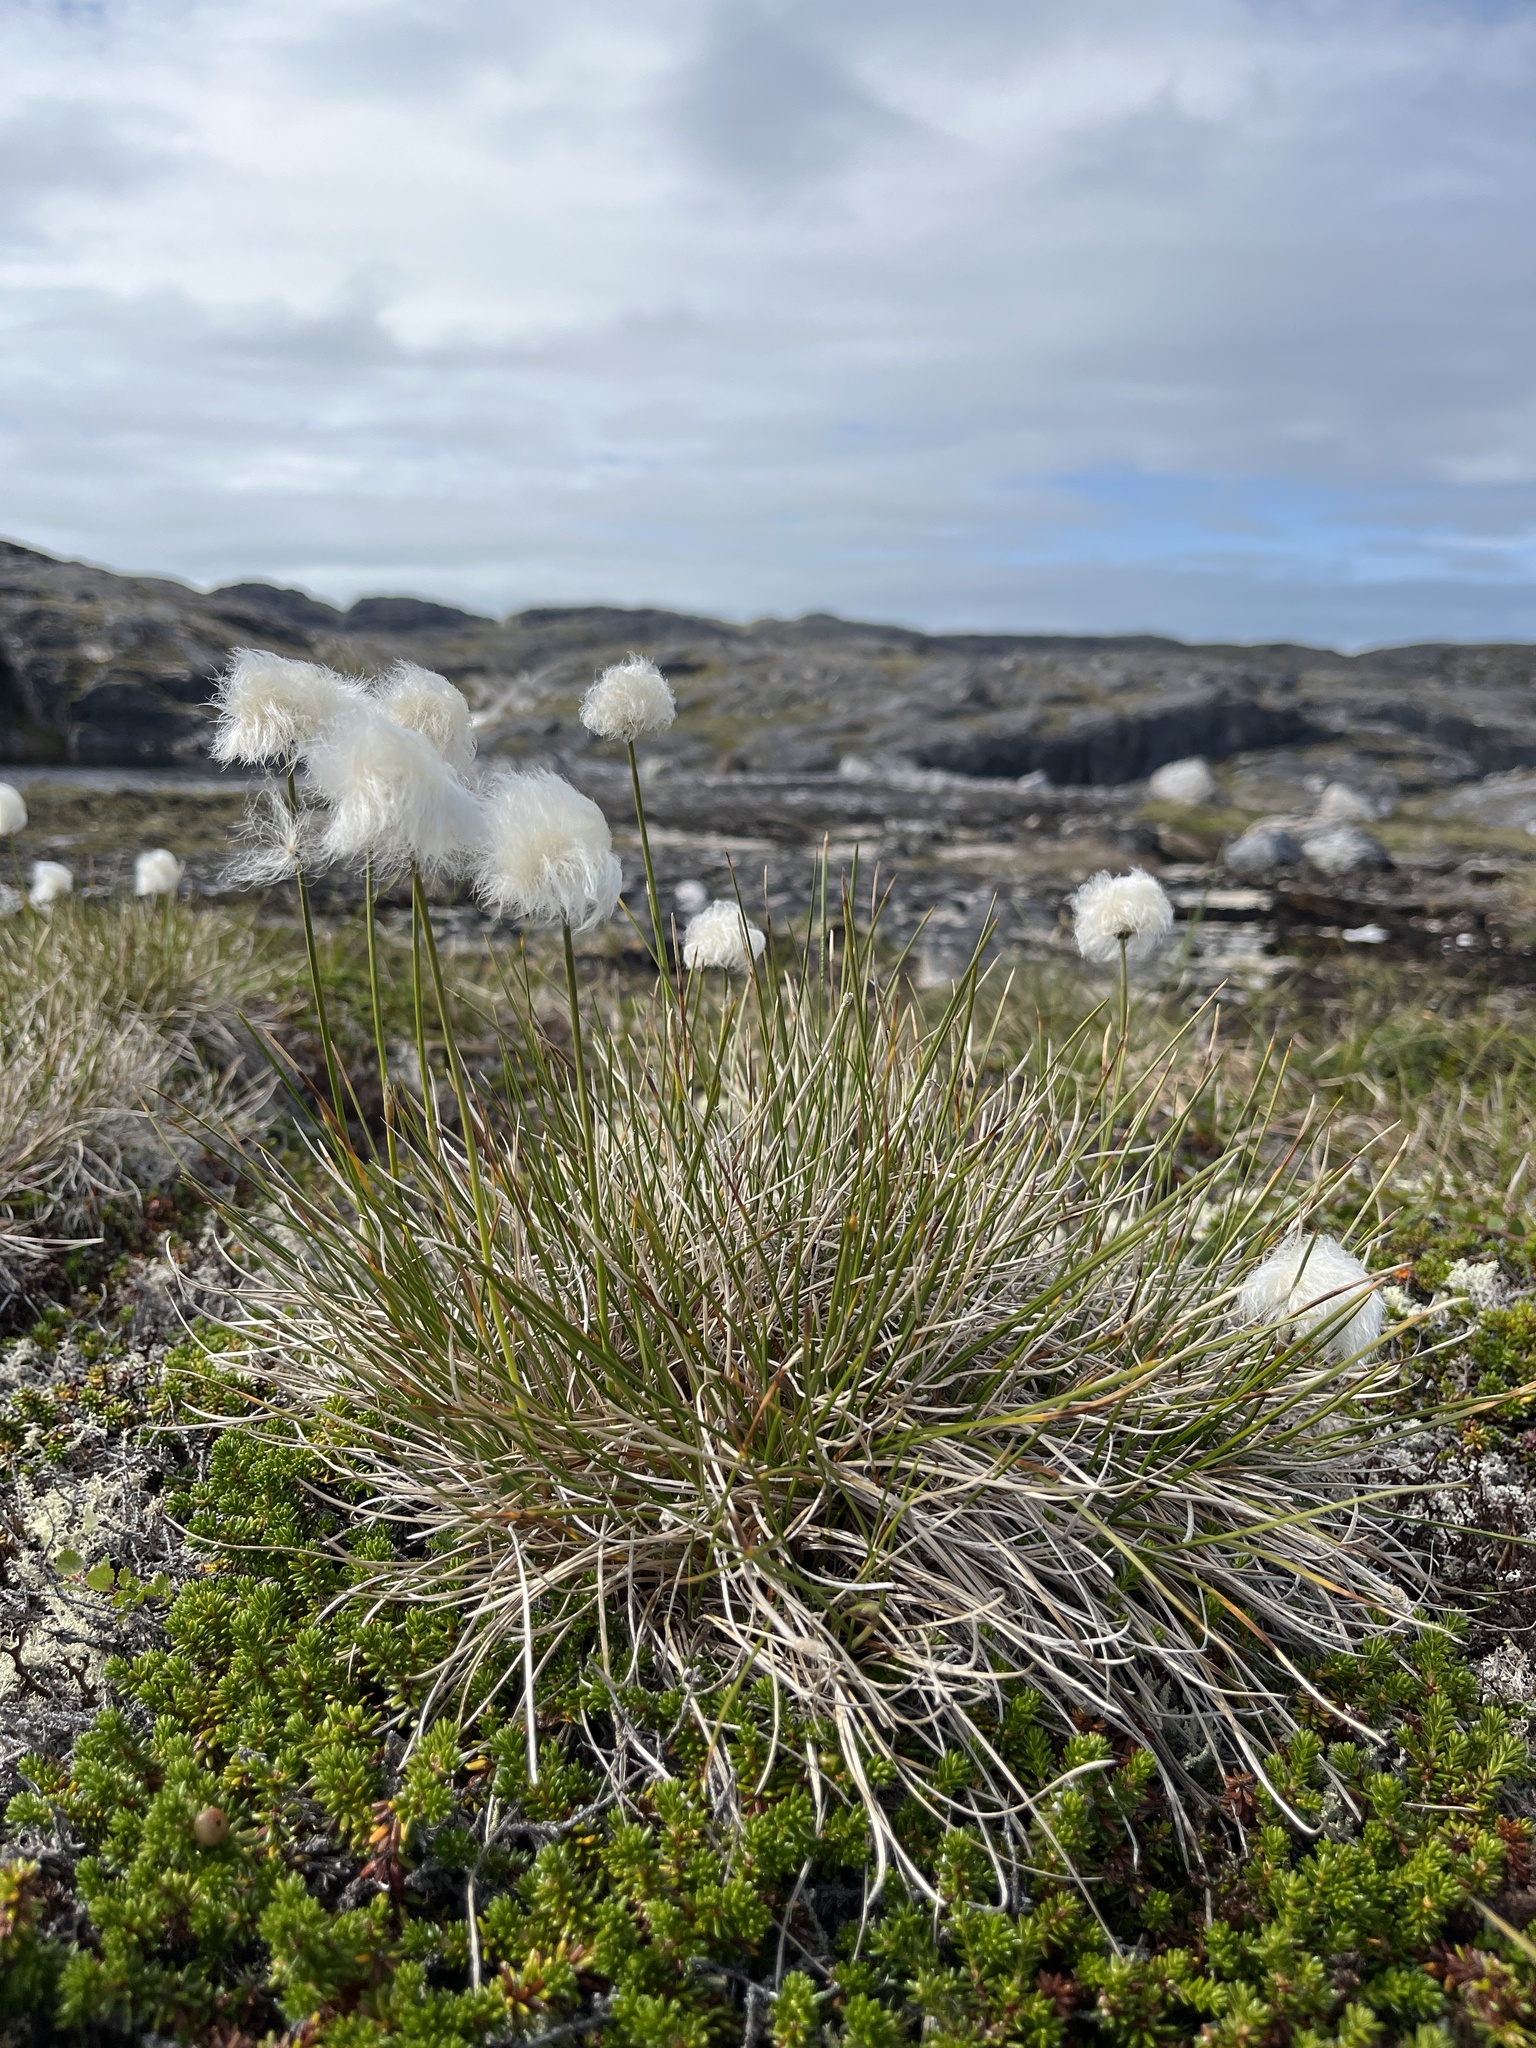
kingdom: Plantae
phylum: Tracheophyta
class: Liliopsida
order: Poales
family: Cyperaceae
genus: Eriophorum
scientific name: Eriophorum vaginatum
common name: Hare's-tail cottongrass
